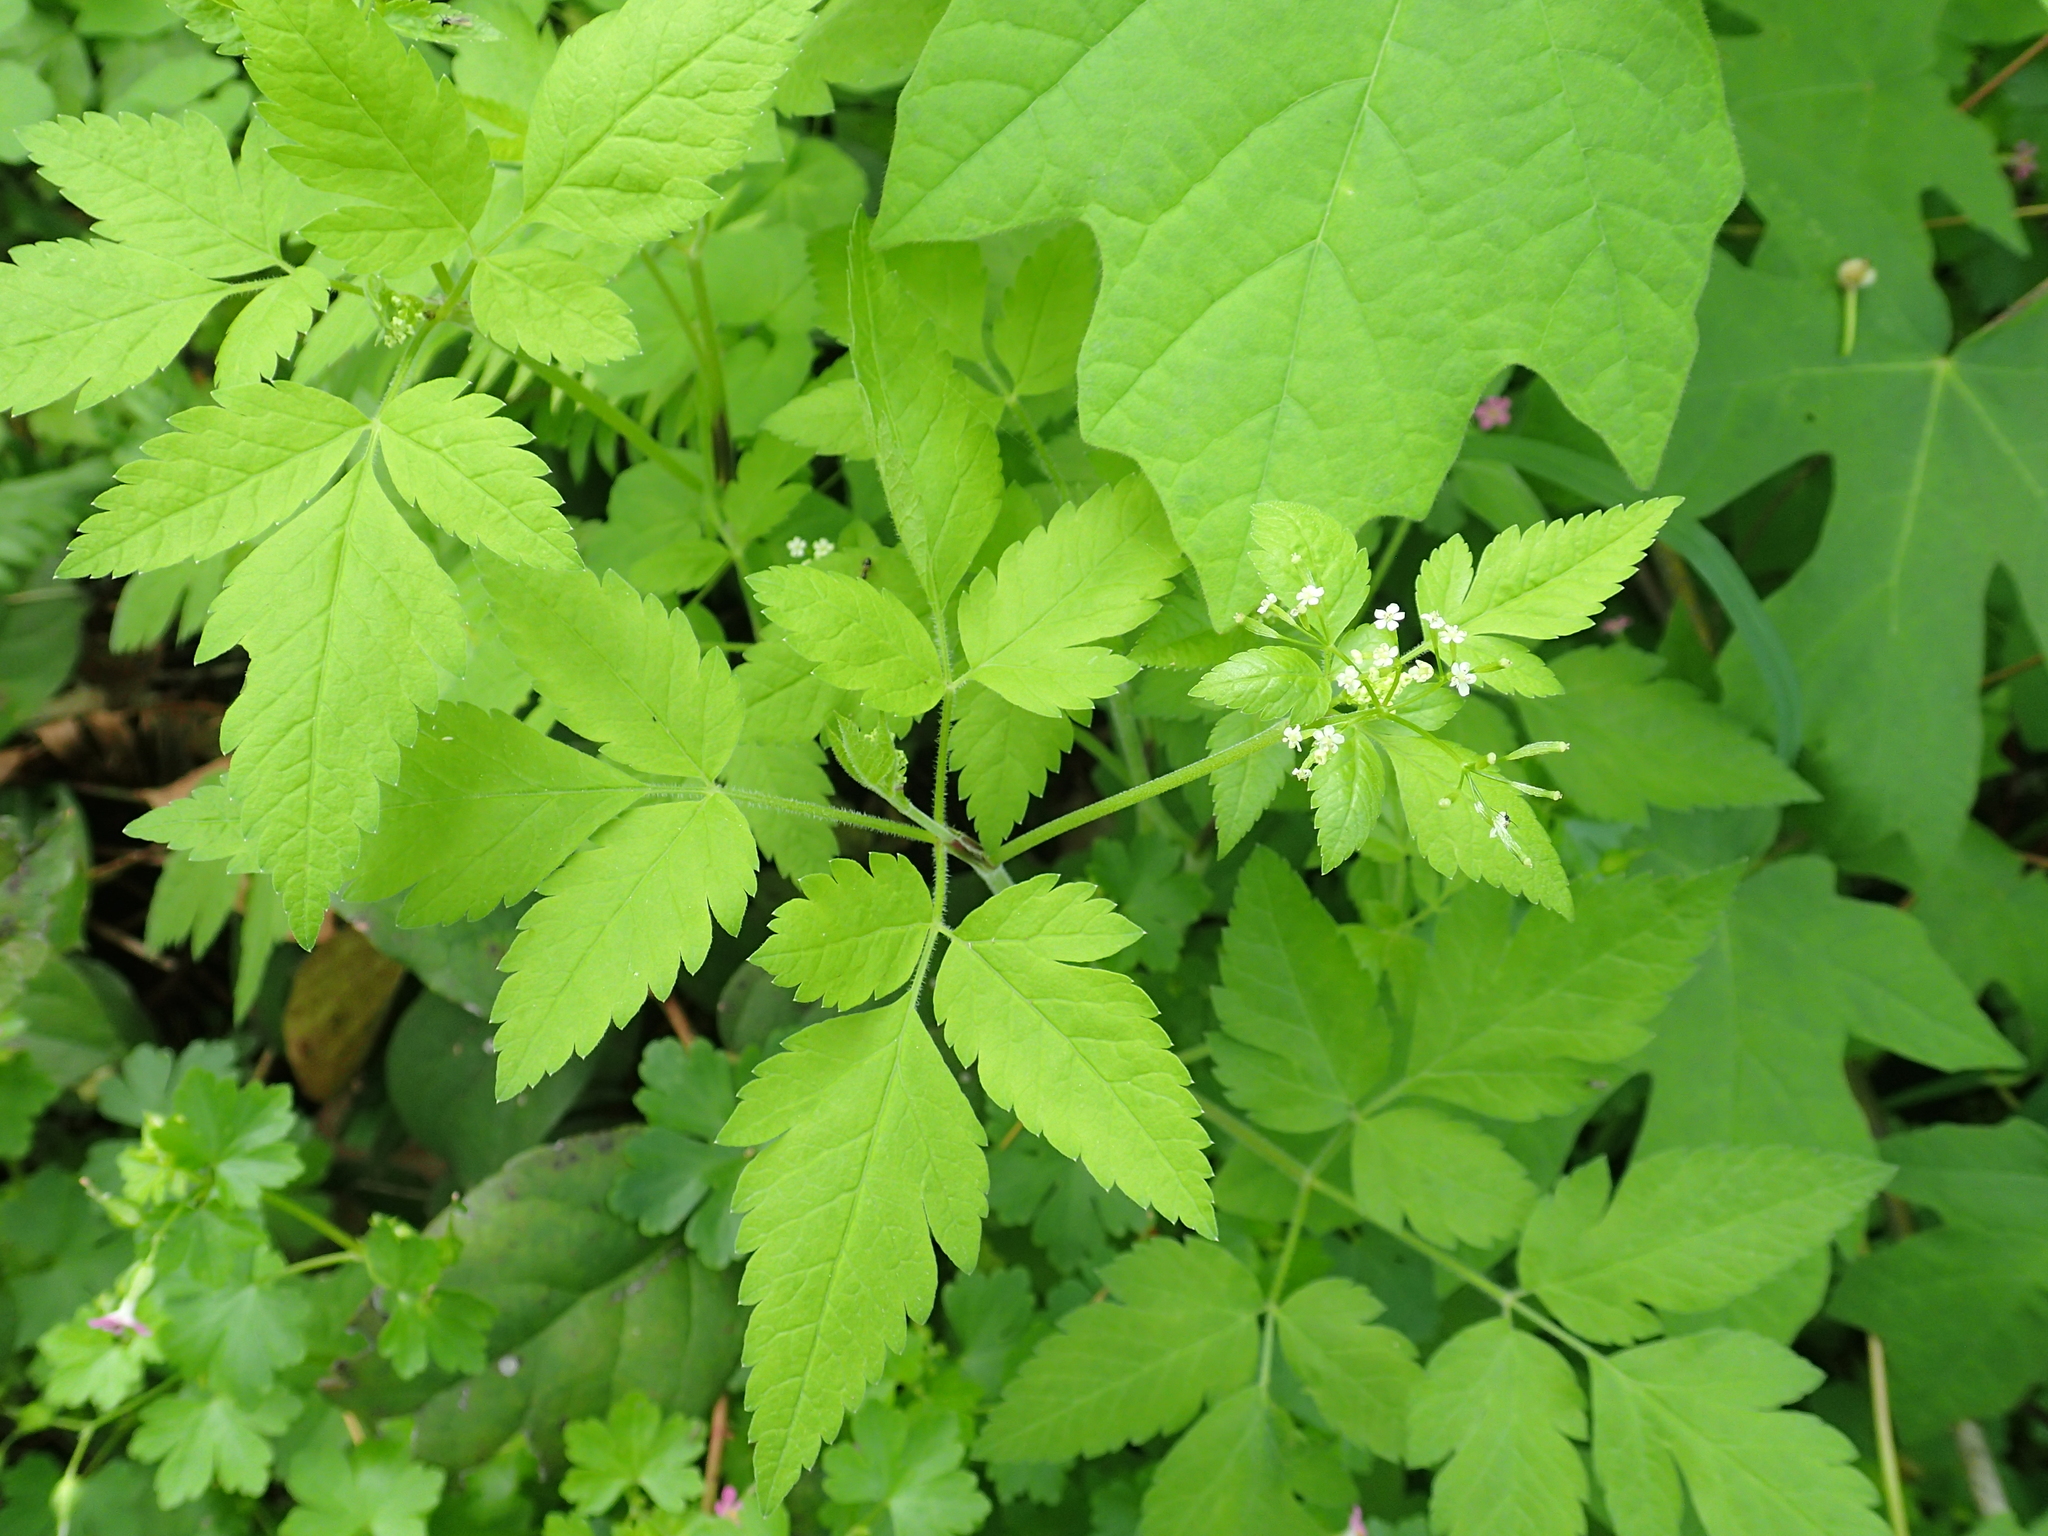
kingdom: Plantae
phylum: Tracheophyta
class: Magnoliopsida
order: Apiales
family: Apiaceae
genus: Osmorhiza
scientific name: Osmorhiza berteroi
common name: Mountain sweet cicely
